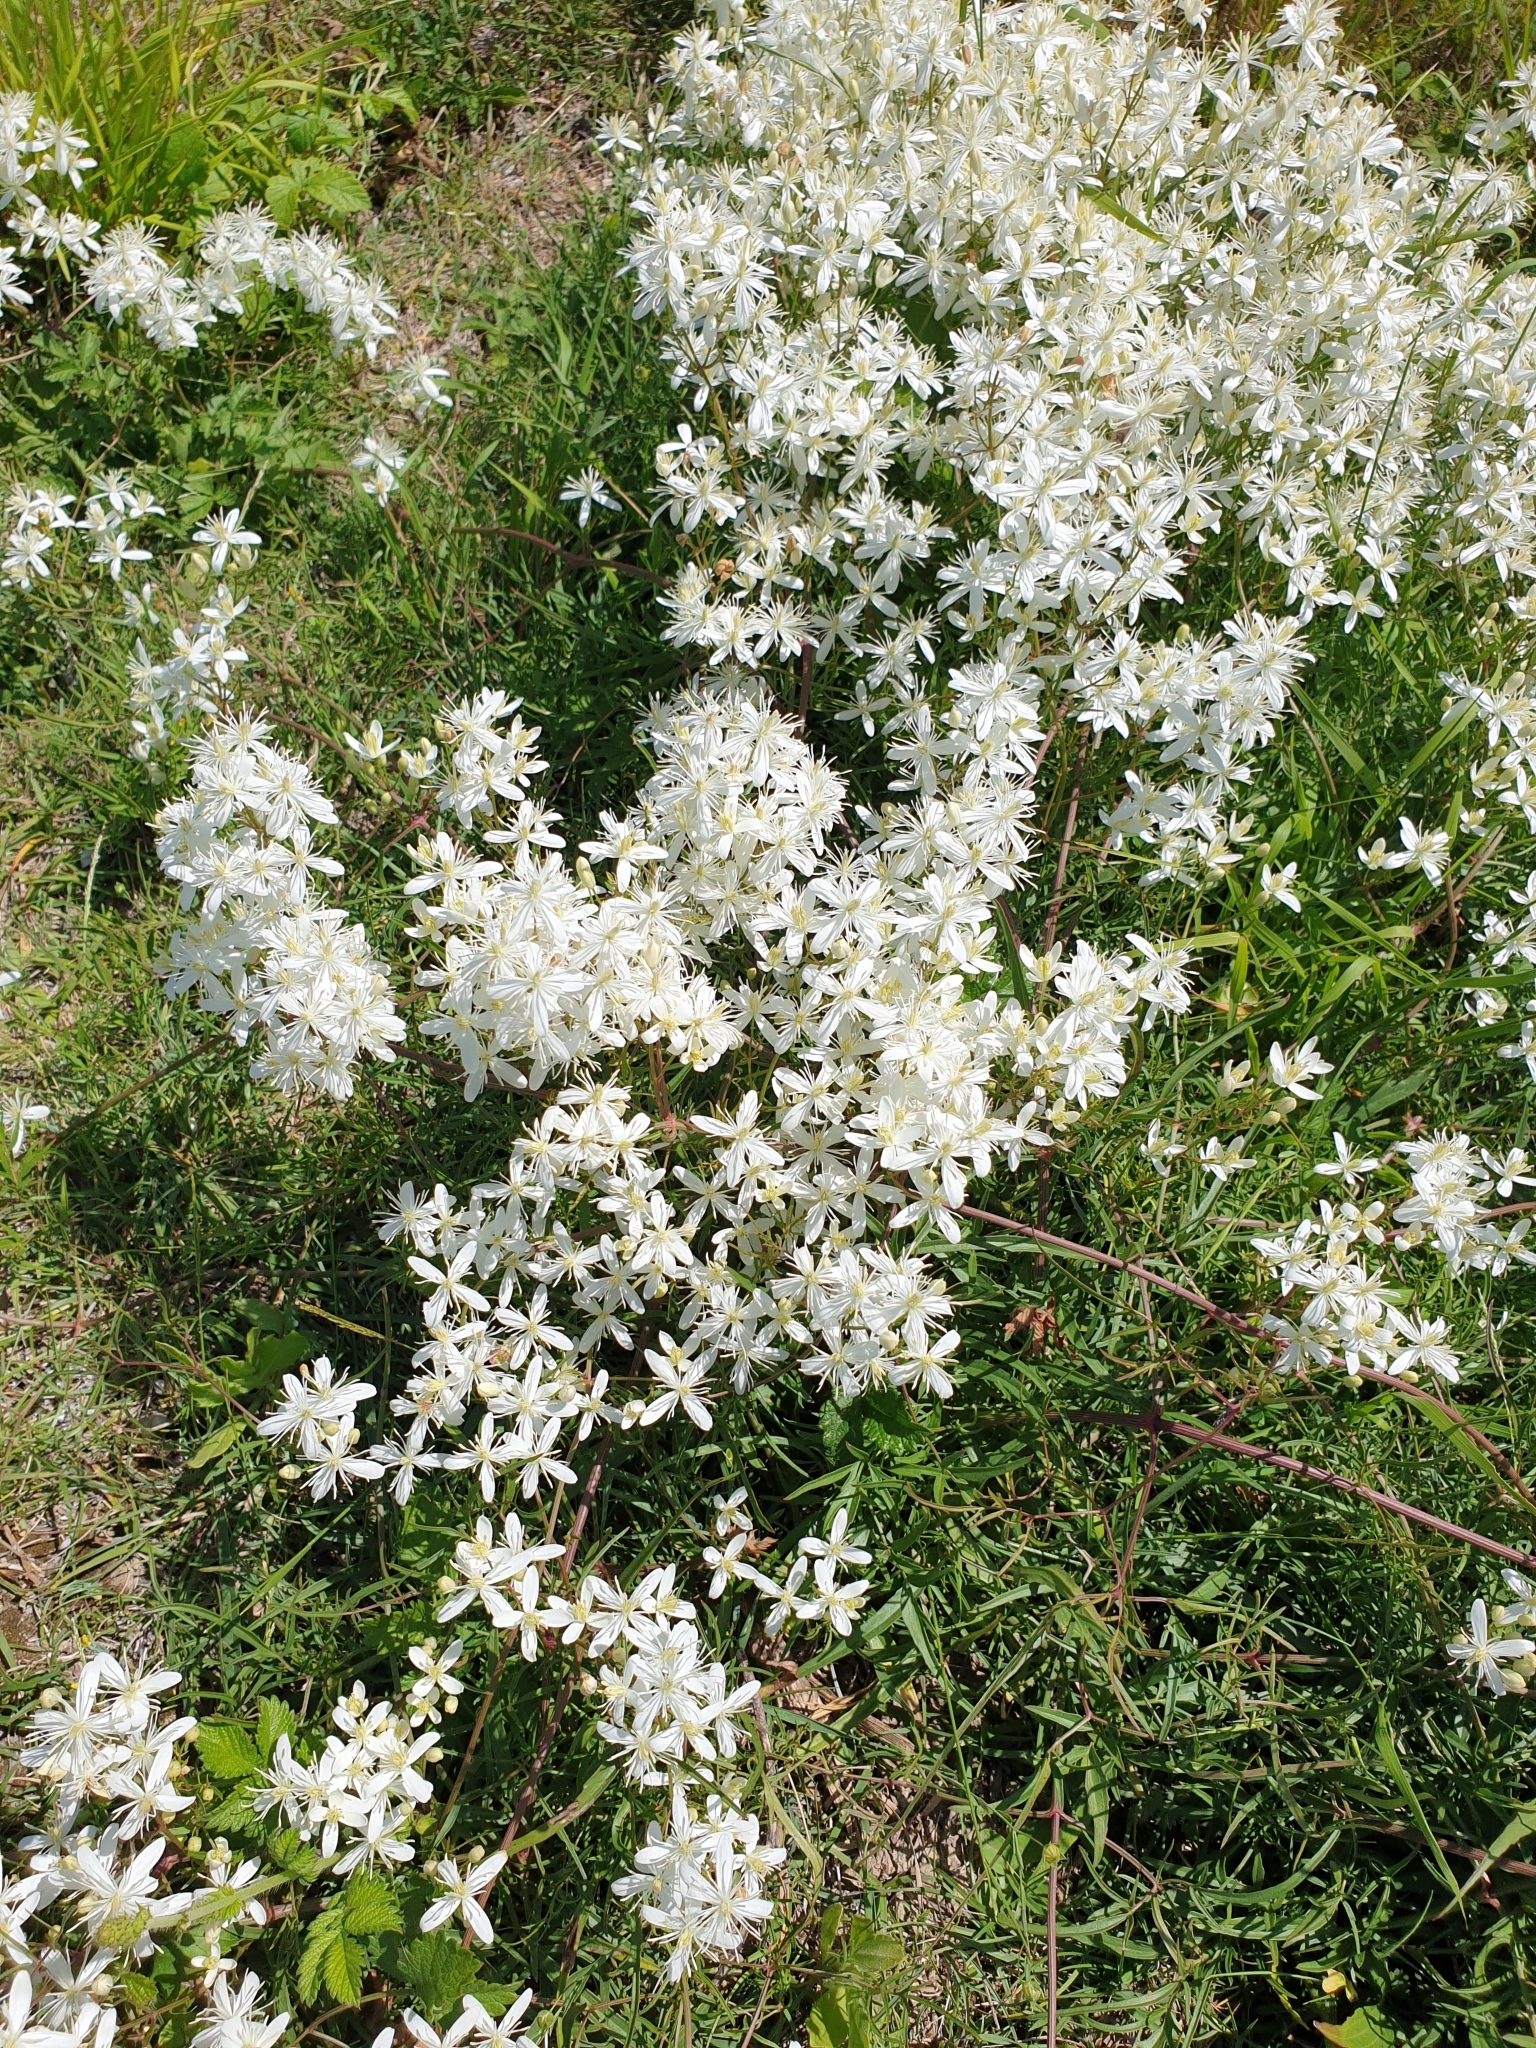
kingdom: Plantae
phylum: Tracheophyta
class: Magnoliopsida
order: Ranunculales
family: Ranunculaceae
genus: Clematis
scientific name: Clematis flammula
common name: Virgin's-bower
